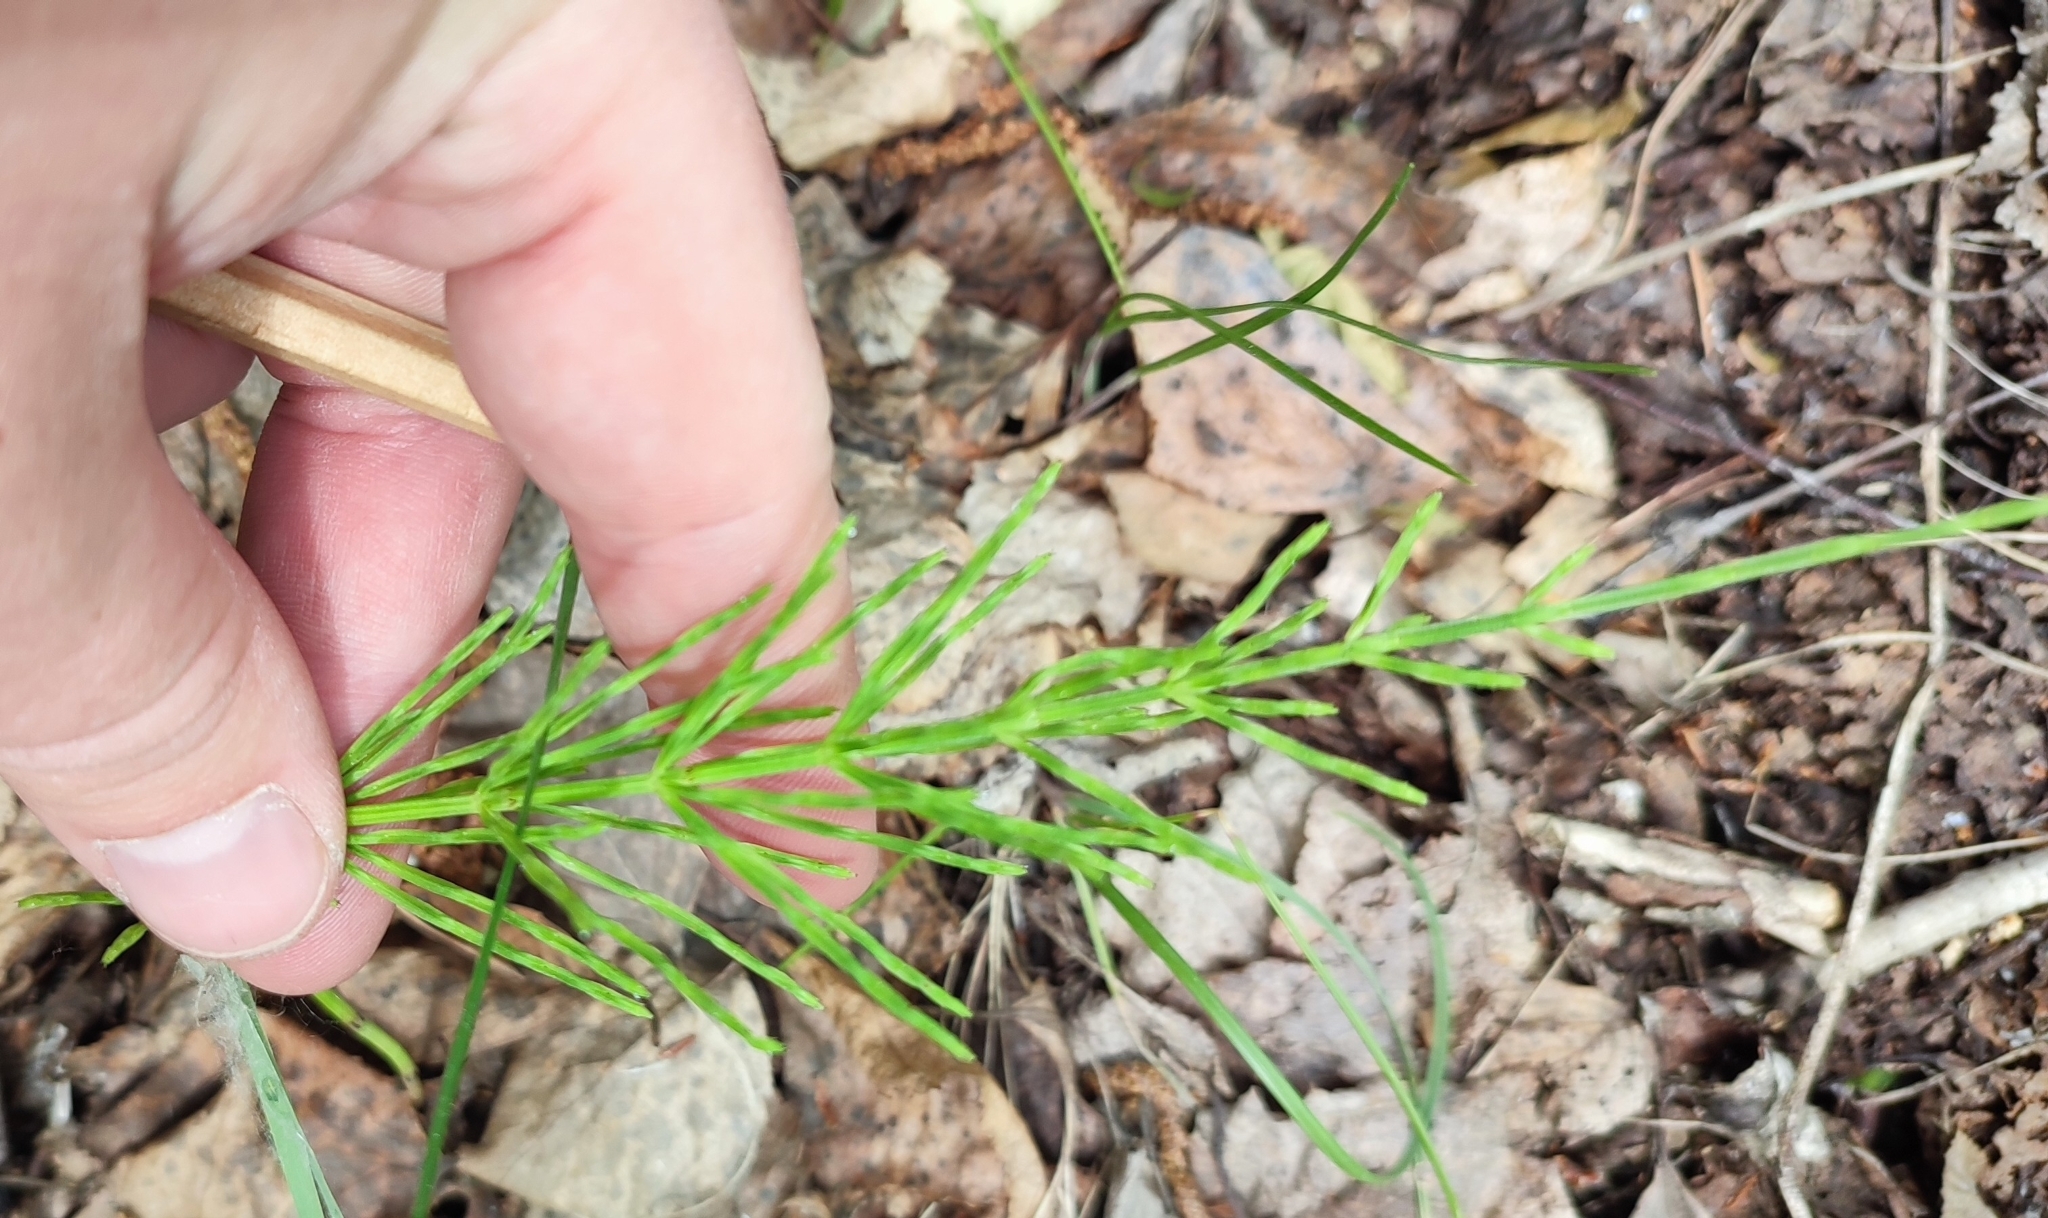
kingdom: Plantae
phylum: Tracheophyta
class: Polypodiopsida
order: Equisetales
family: Equisetaceae
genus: Equisetum
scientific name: Equisetum arvense
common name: Field horsetail
